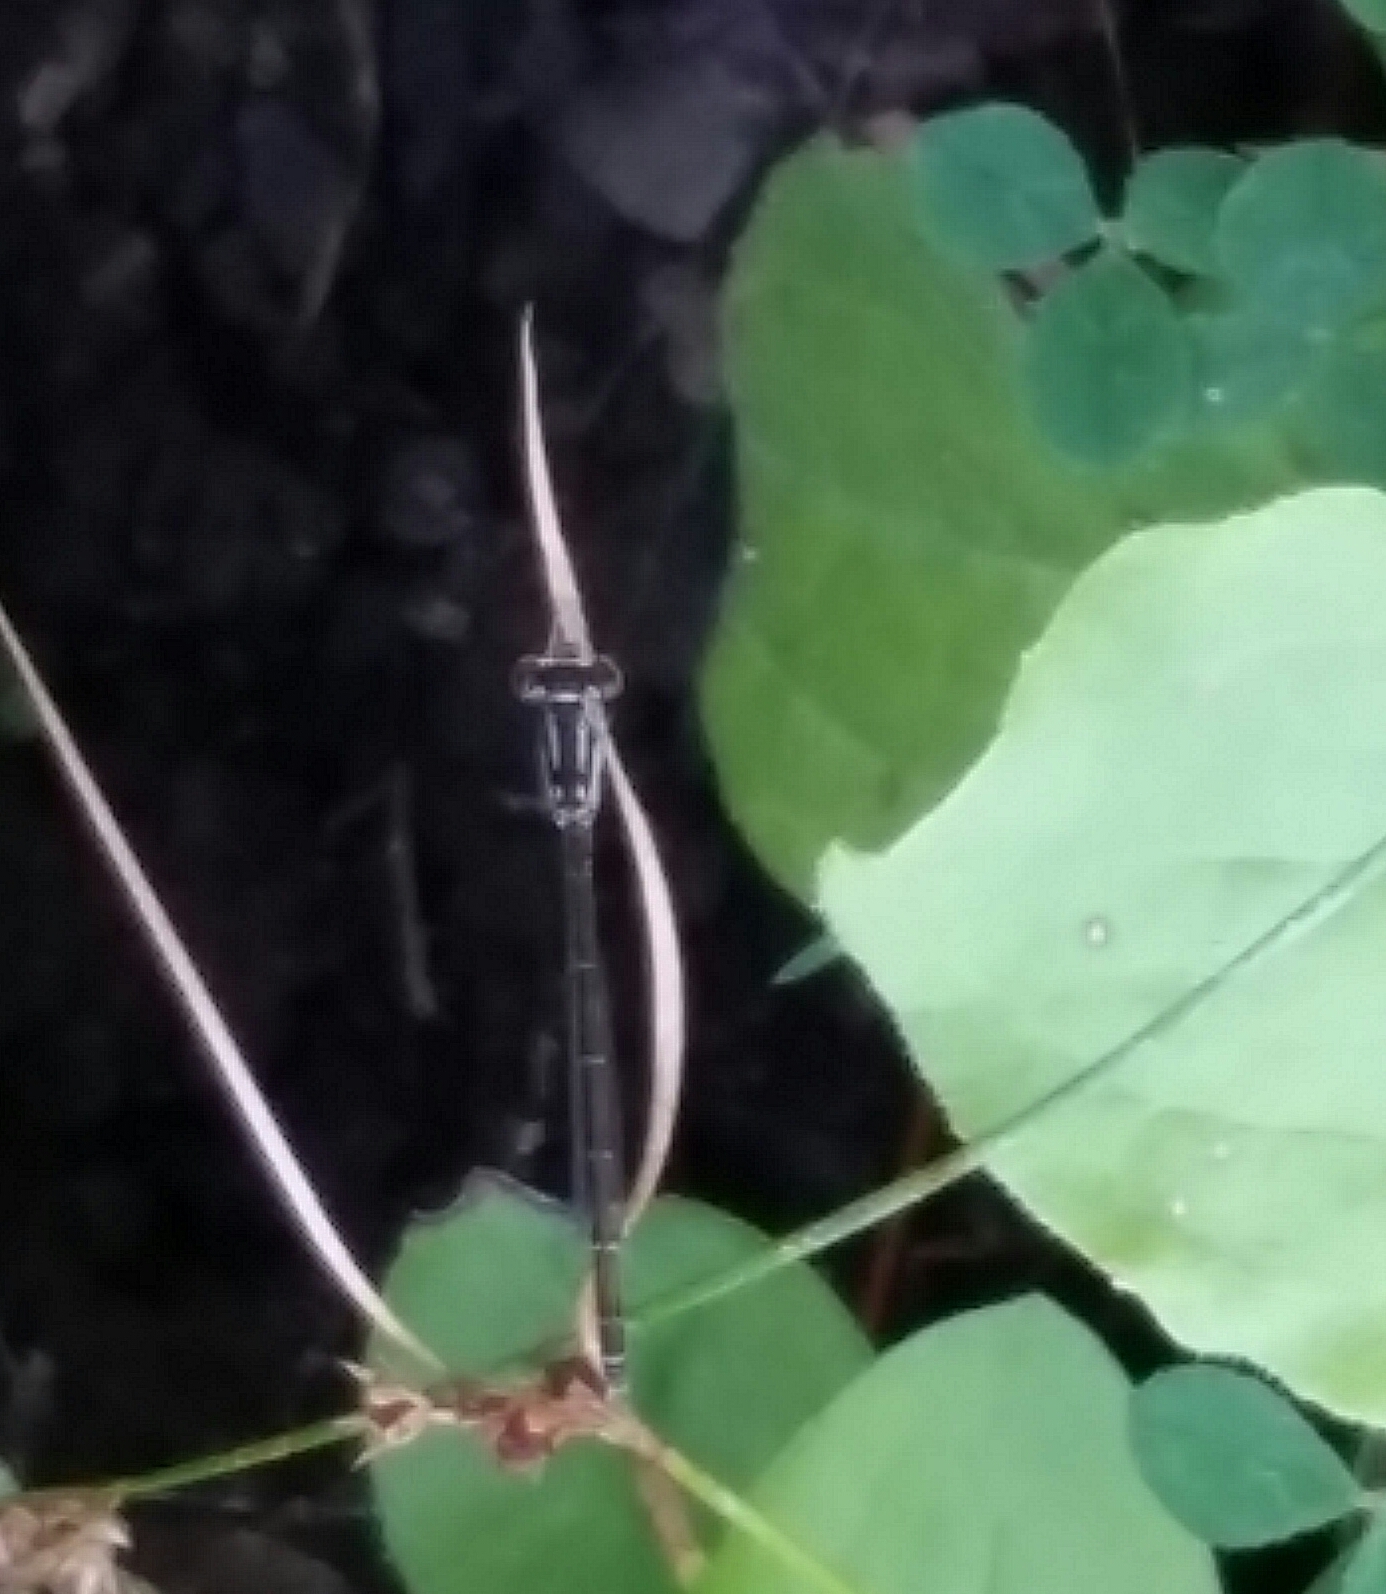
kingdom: Animalia
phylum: Arthropoda
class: Insecta
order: Odonata
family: Coenagrionidae
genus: Ischnura
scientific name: Ischnura posita
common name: Fragile forktail
